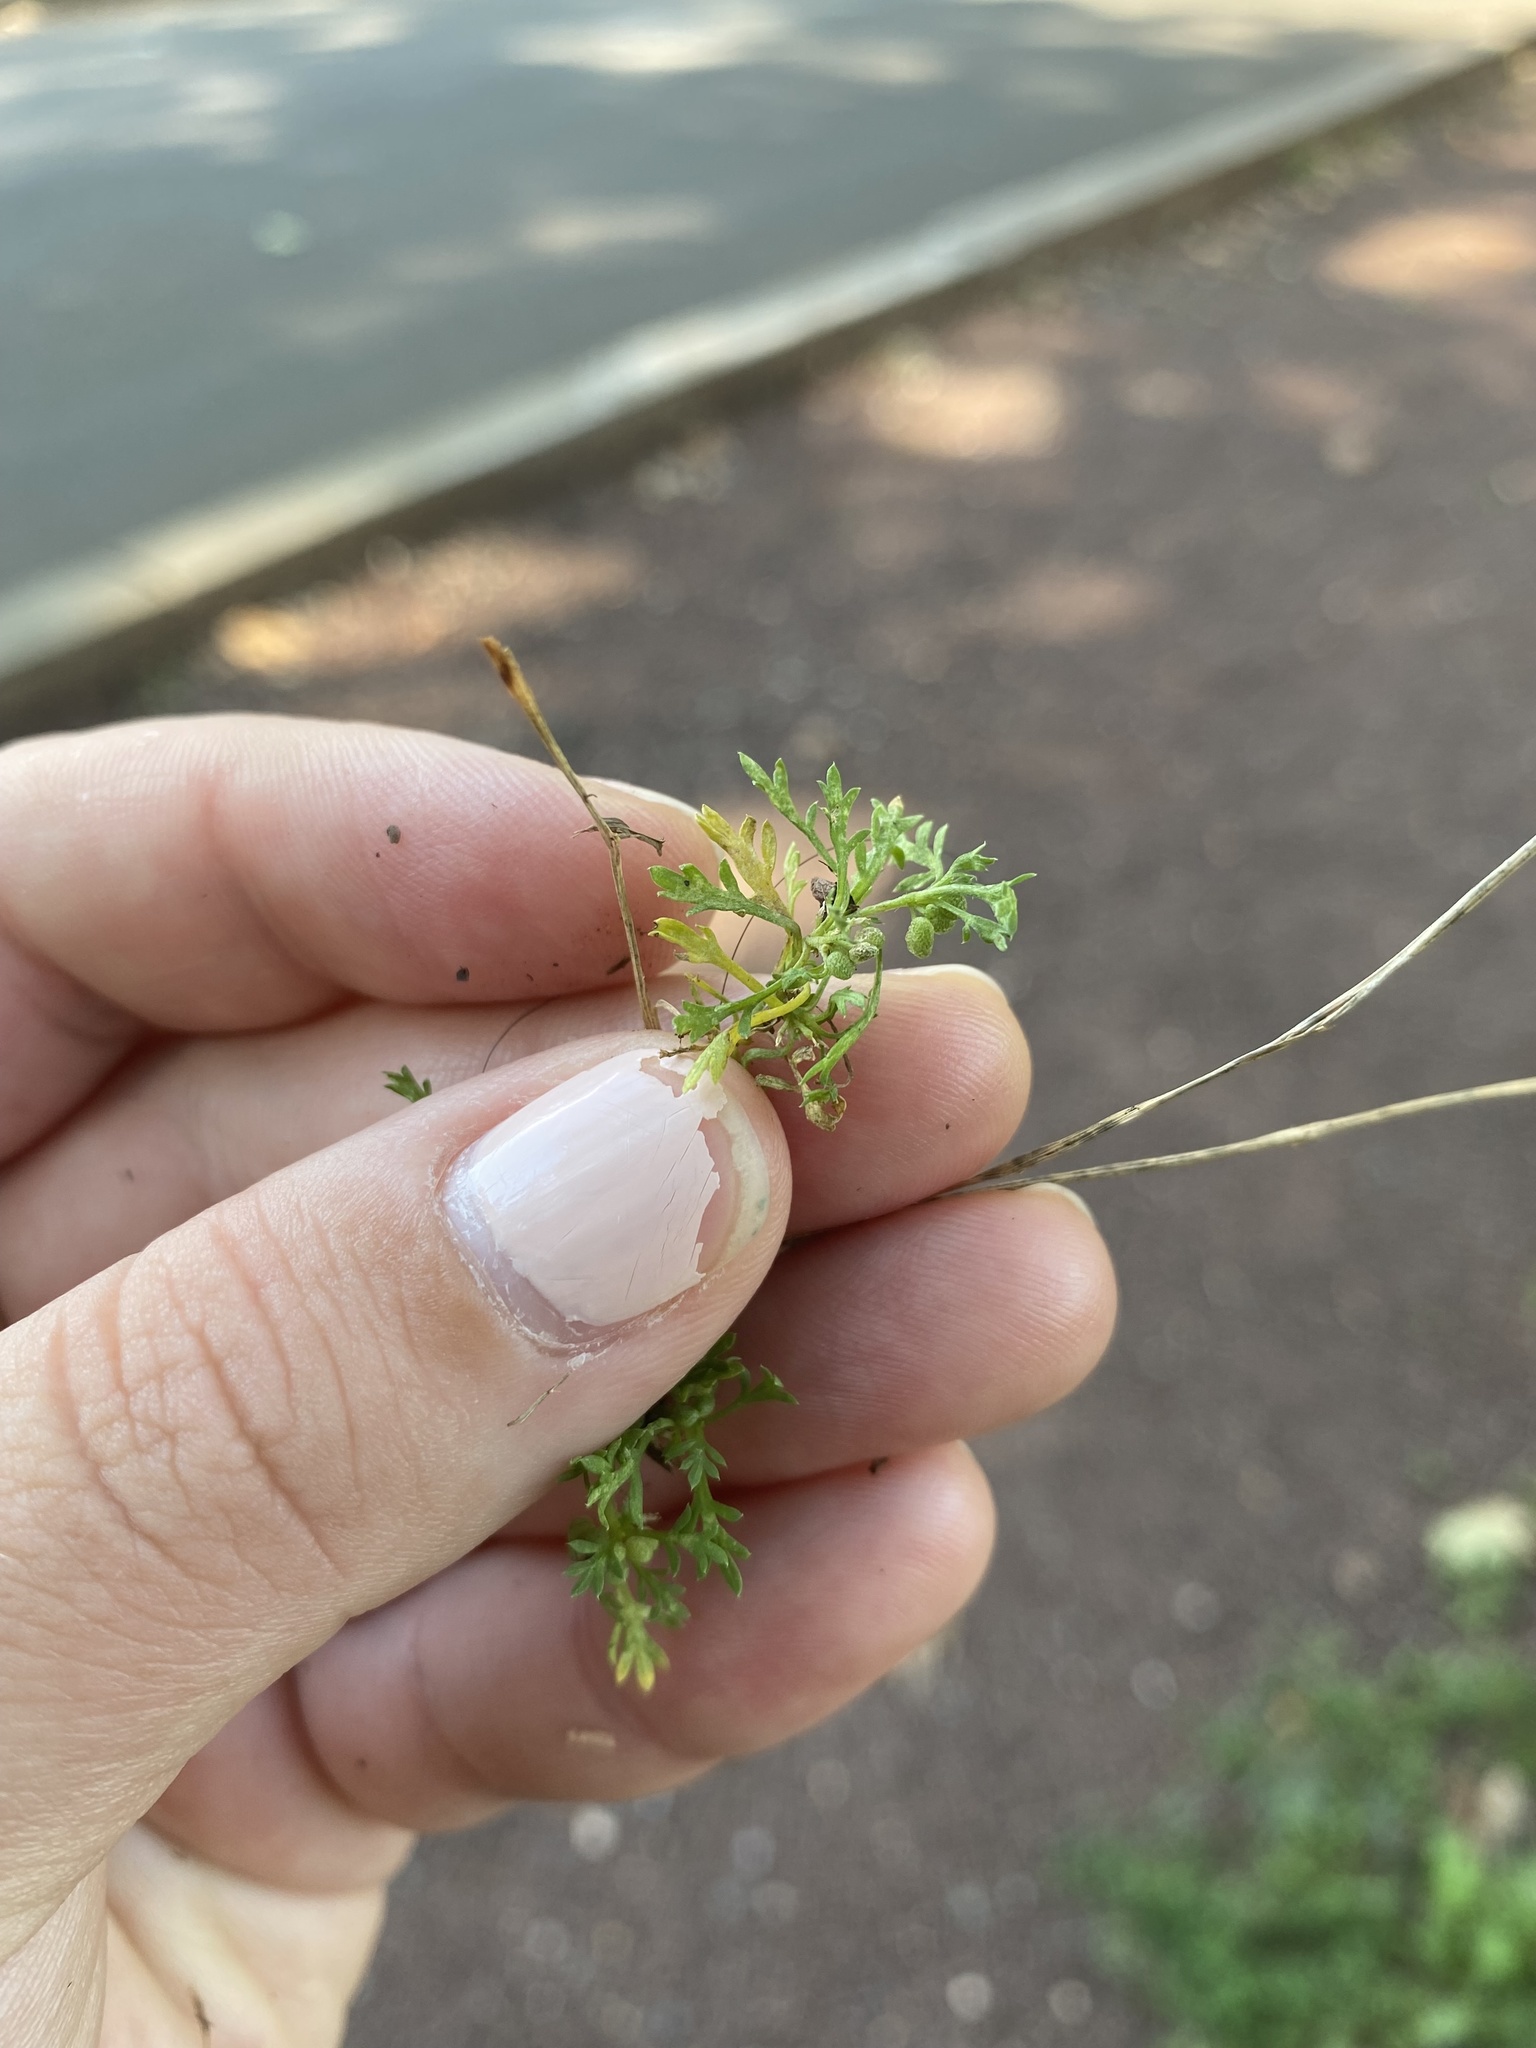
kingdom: Plantae
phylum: Tracheophyta
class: Magnoliopsida
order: Brassicales
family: Brassicaceae
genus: Lepidium
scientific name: Lepidium didymum
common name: Lesser swinecress
